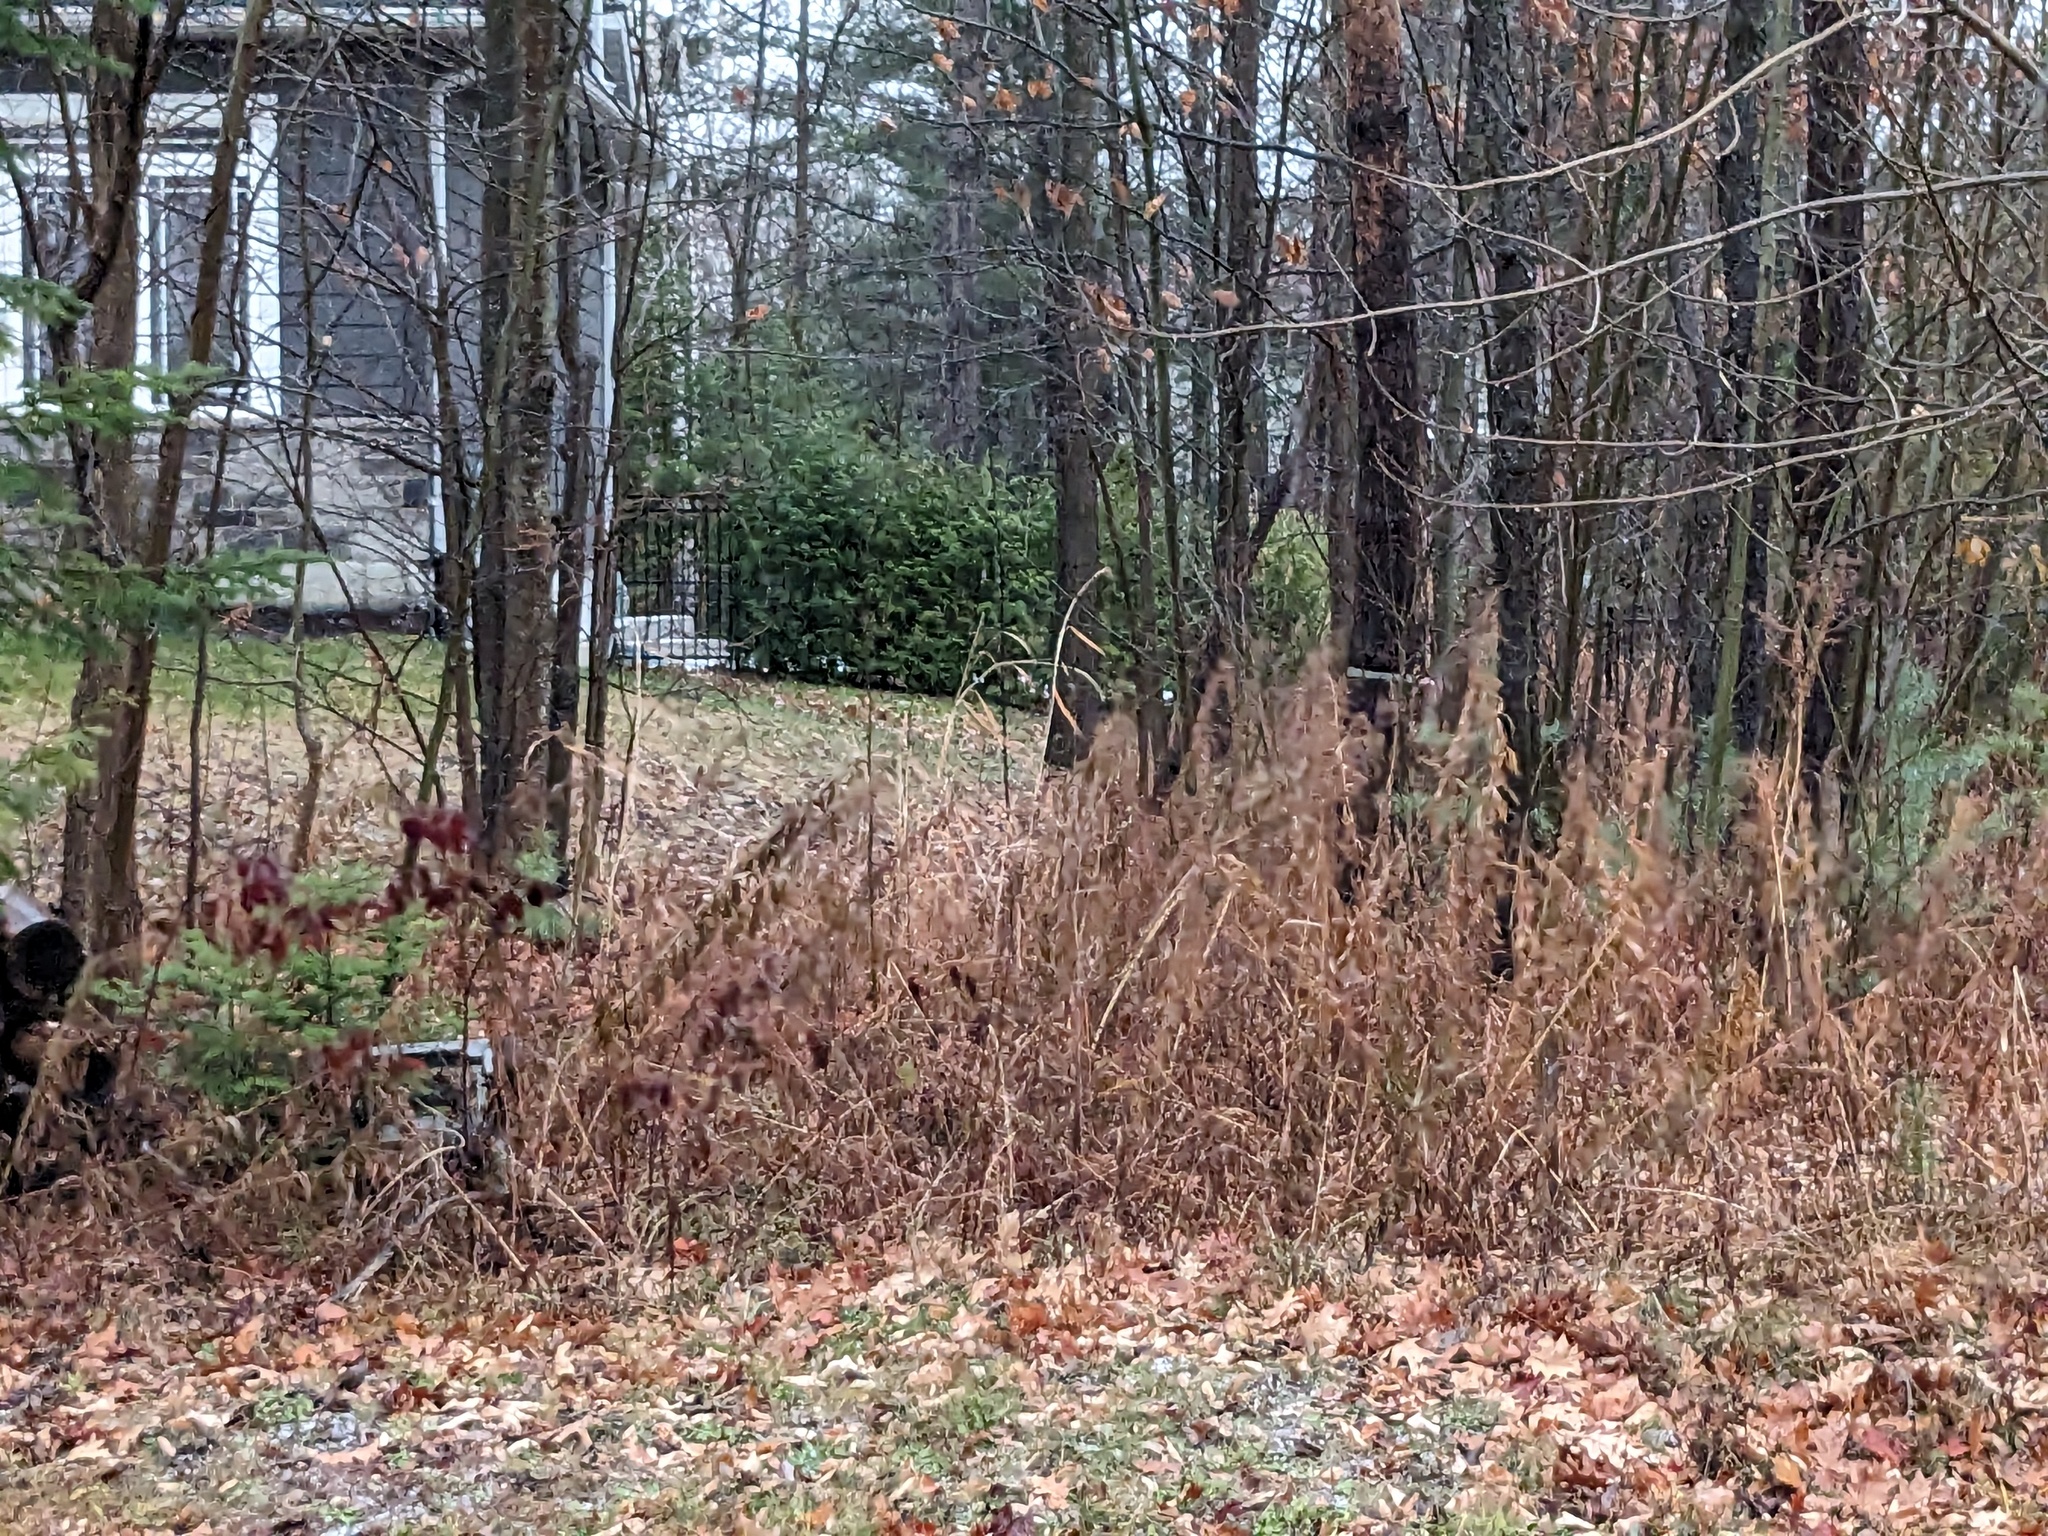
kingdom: Plantae
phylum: Tracheophyta
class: Liliopsida
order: Poales
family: Poaceae
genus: Phragmites
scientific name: Phragmites australis
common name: Common reed
